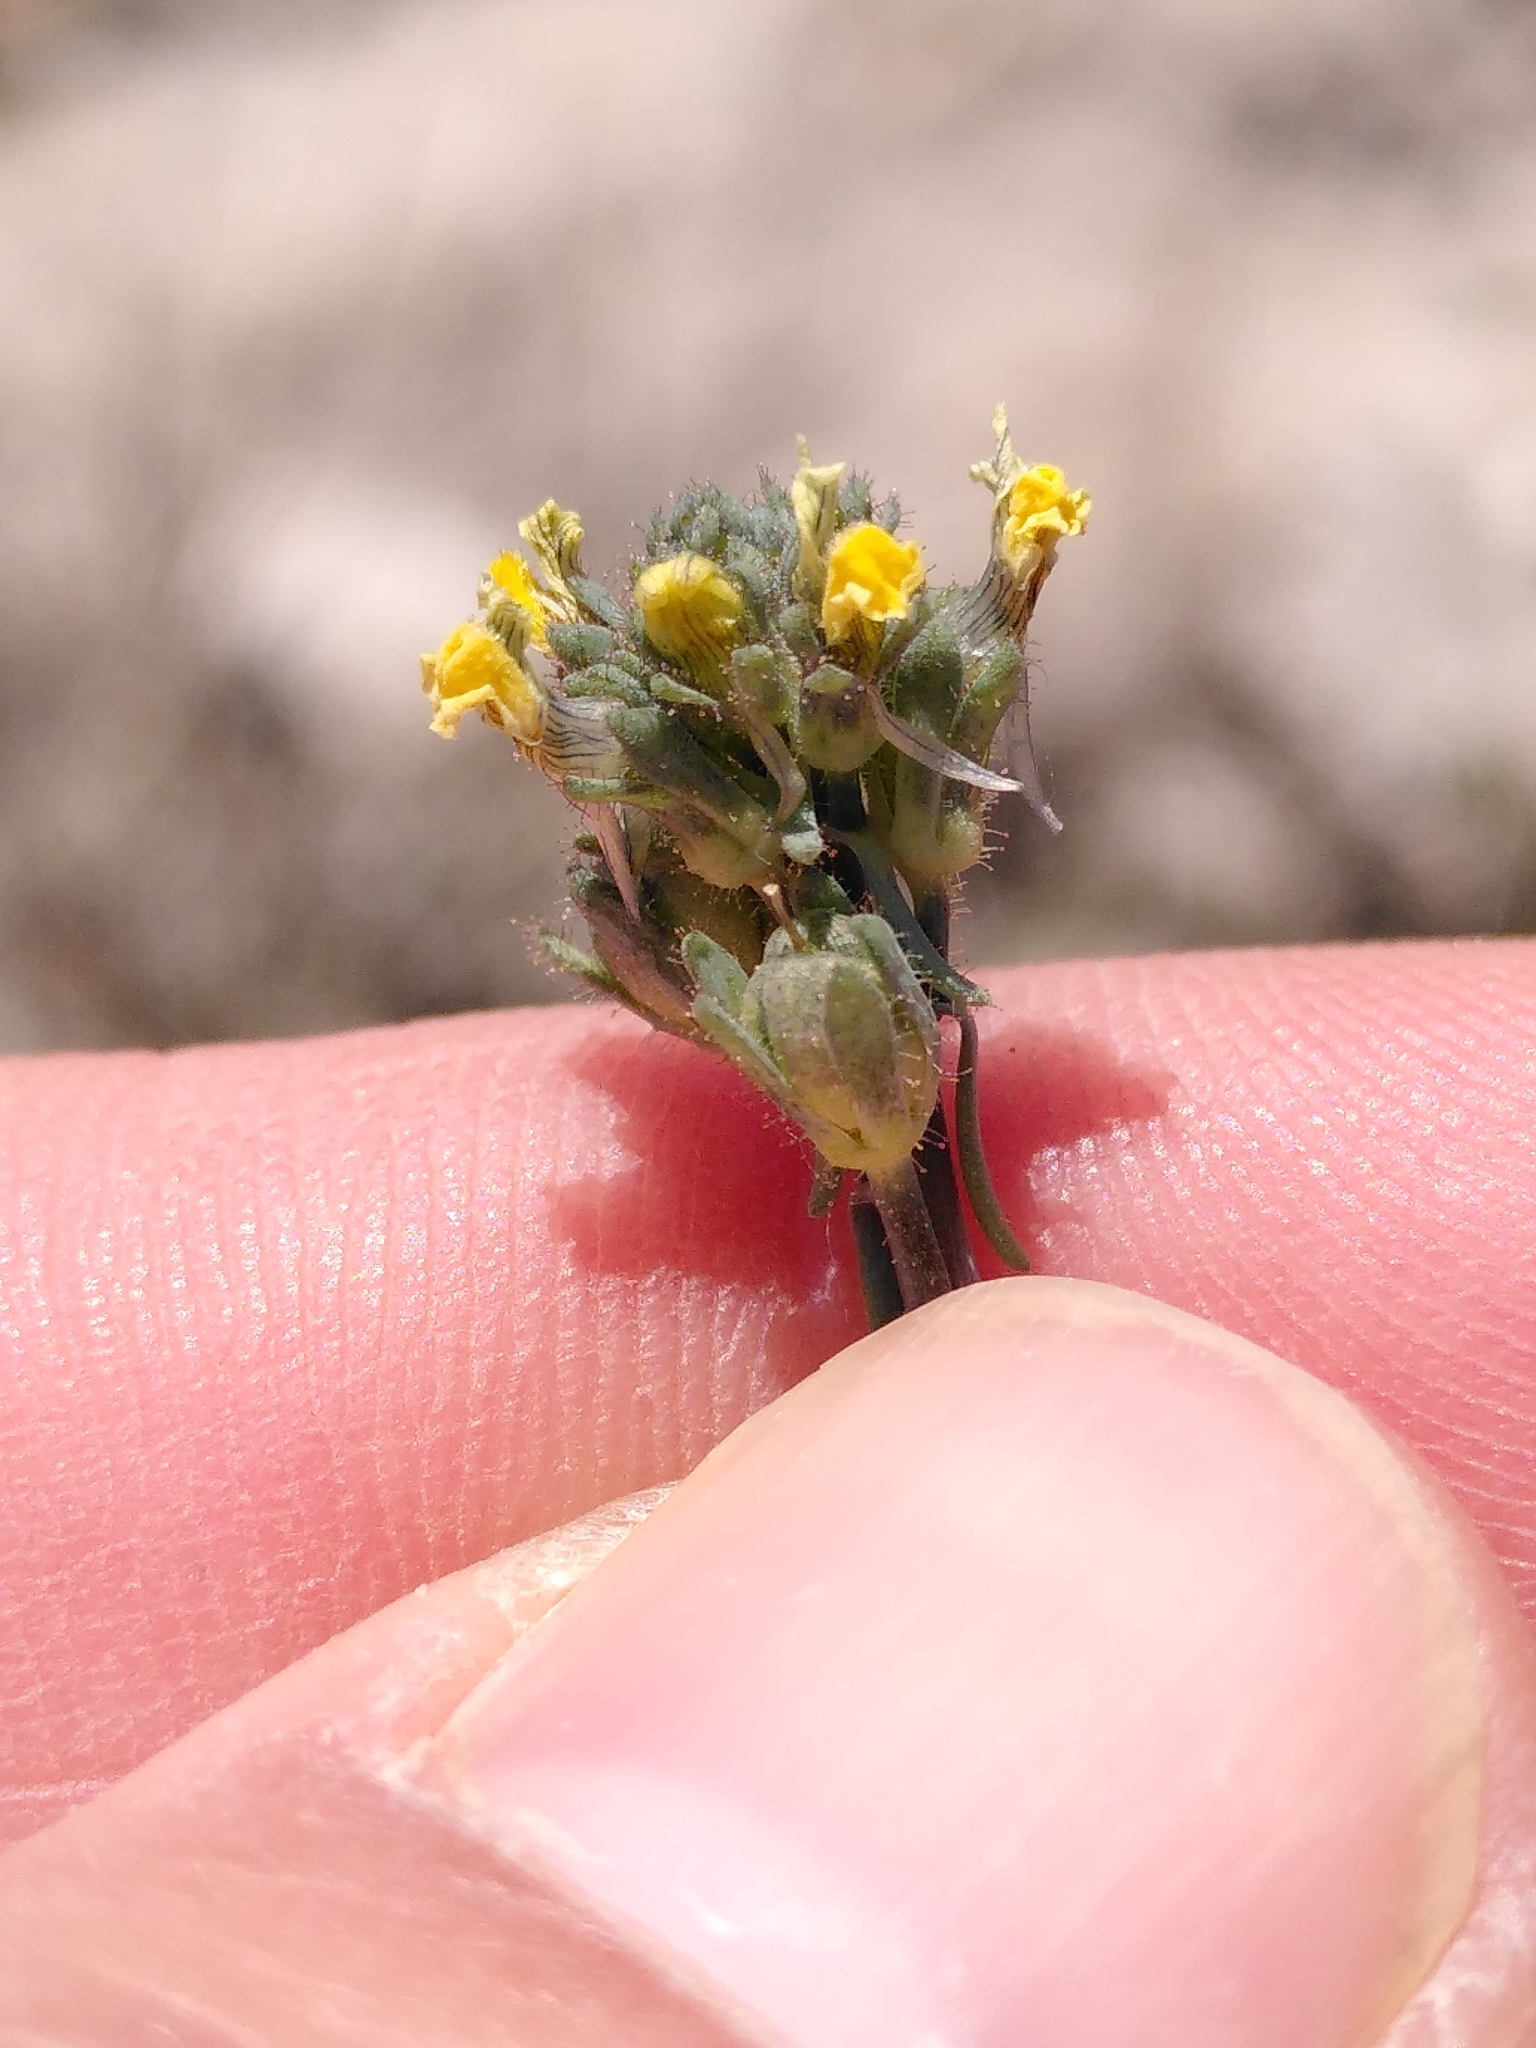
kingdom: Plantae
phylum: Tracheophyta
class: Magnoliopsida
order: Lamiales
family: Plantaginaceae
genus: Linaria
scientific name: Linaria simplex
